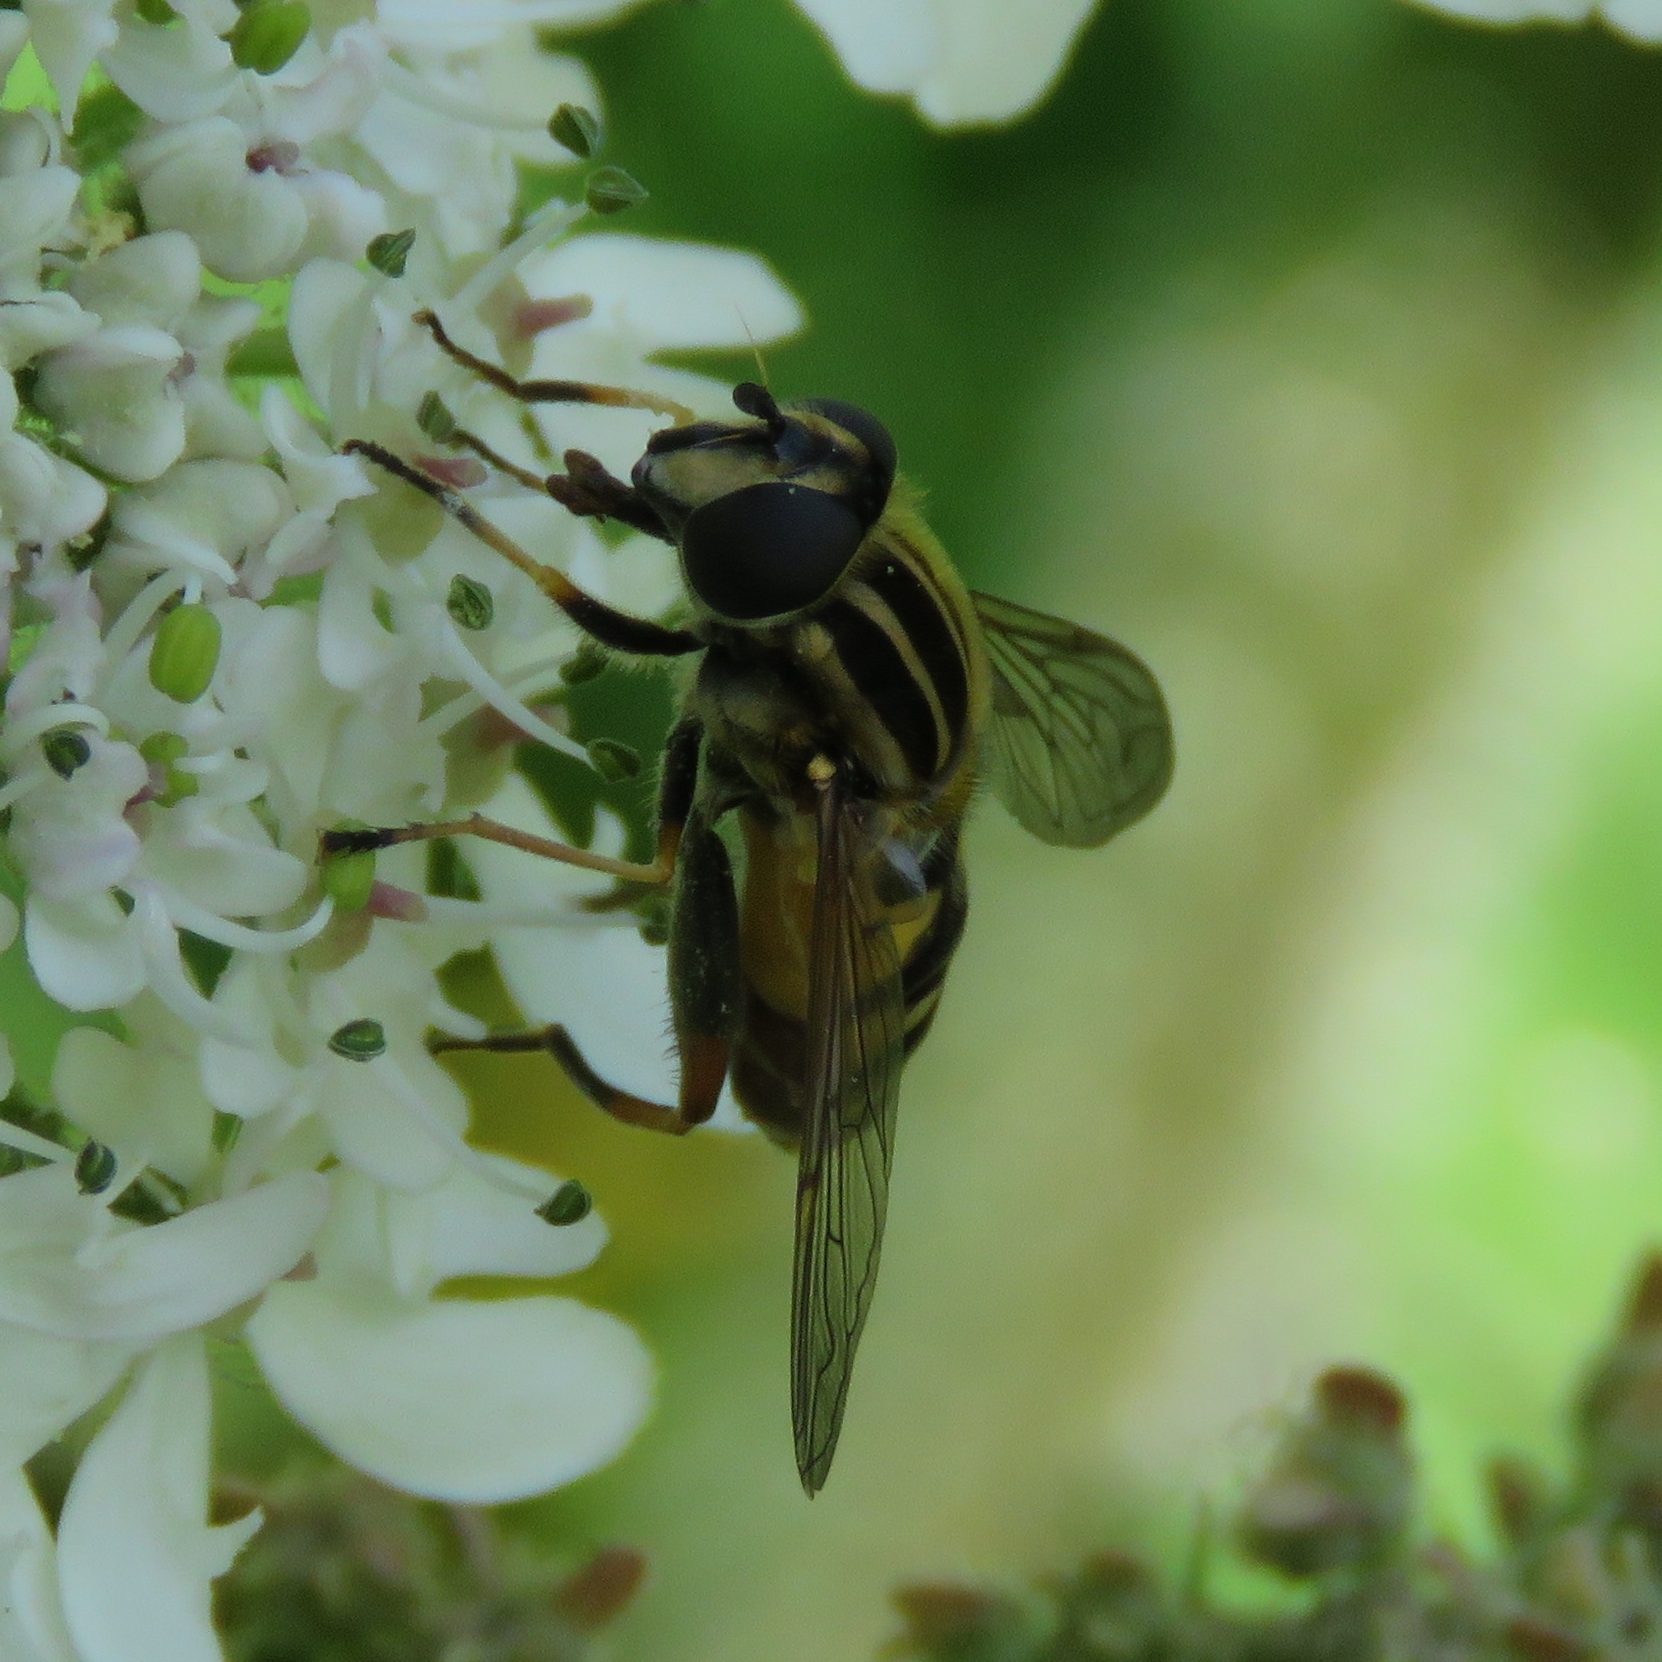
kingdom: Animalia
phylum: Arthropoda
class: Insecta
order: Diptera
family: Syrphidae
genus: Helophilus
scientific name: Helophilus pendulus
